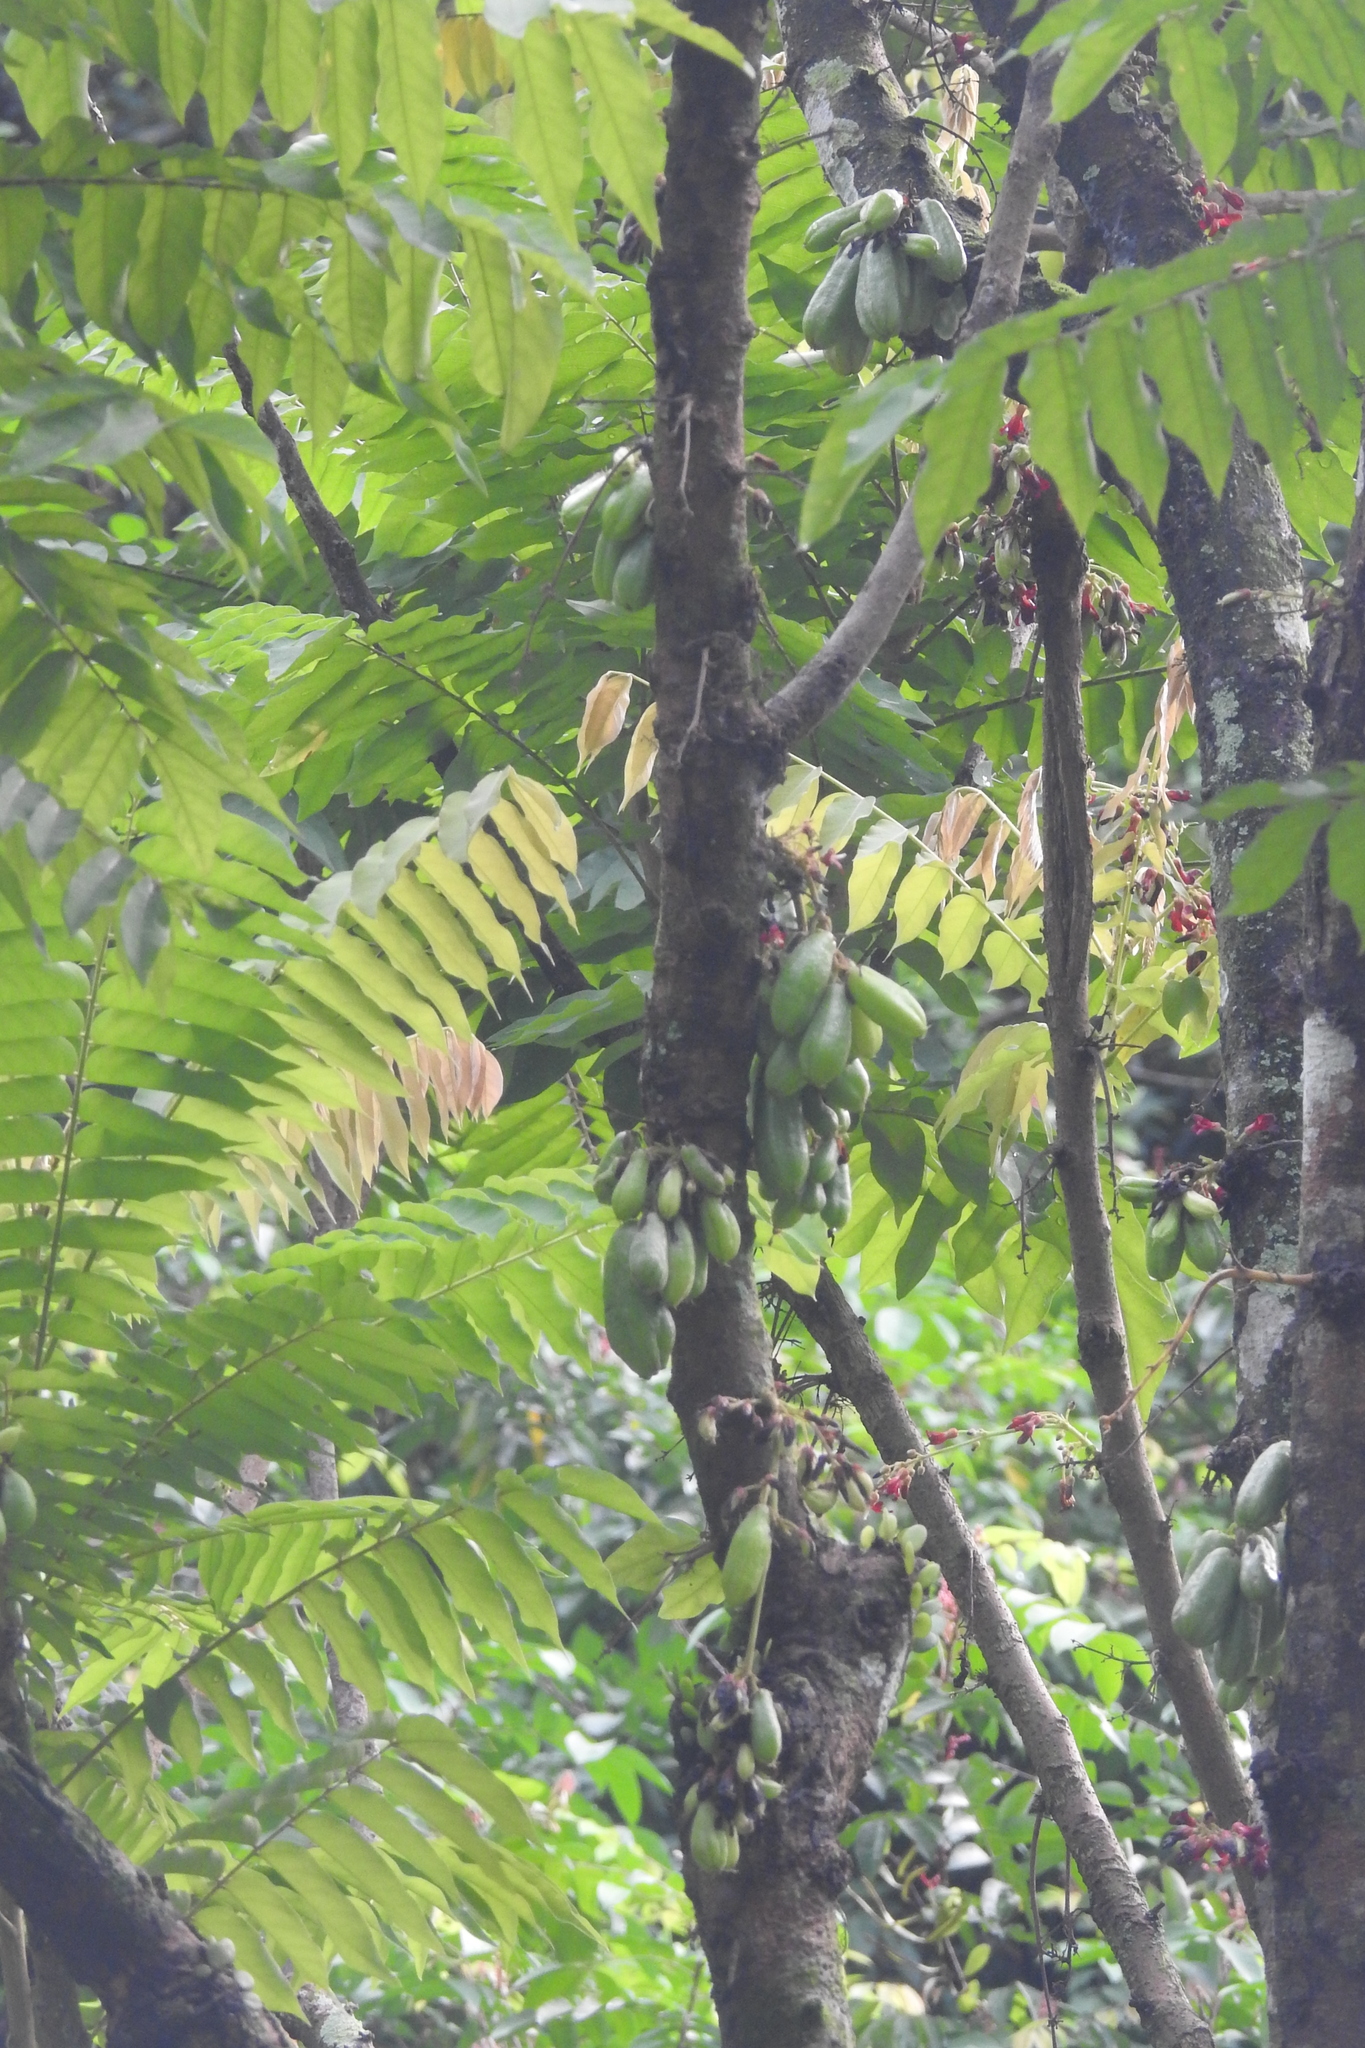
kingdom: Plantae
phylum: Tracheophyta
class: Magnoliopsida
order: Oxalidales
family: Oxalidaceae
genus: Averrhoa
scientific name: Averrhoa bilimbi
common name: Bilimbi
